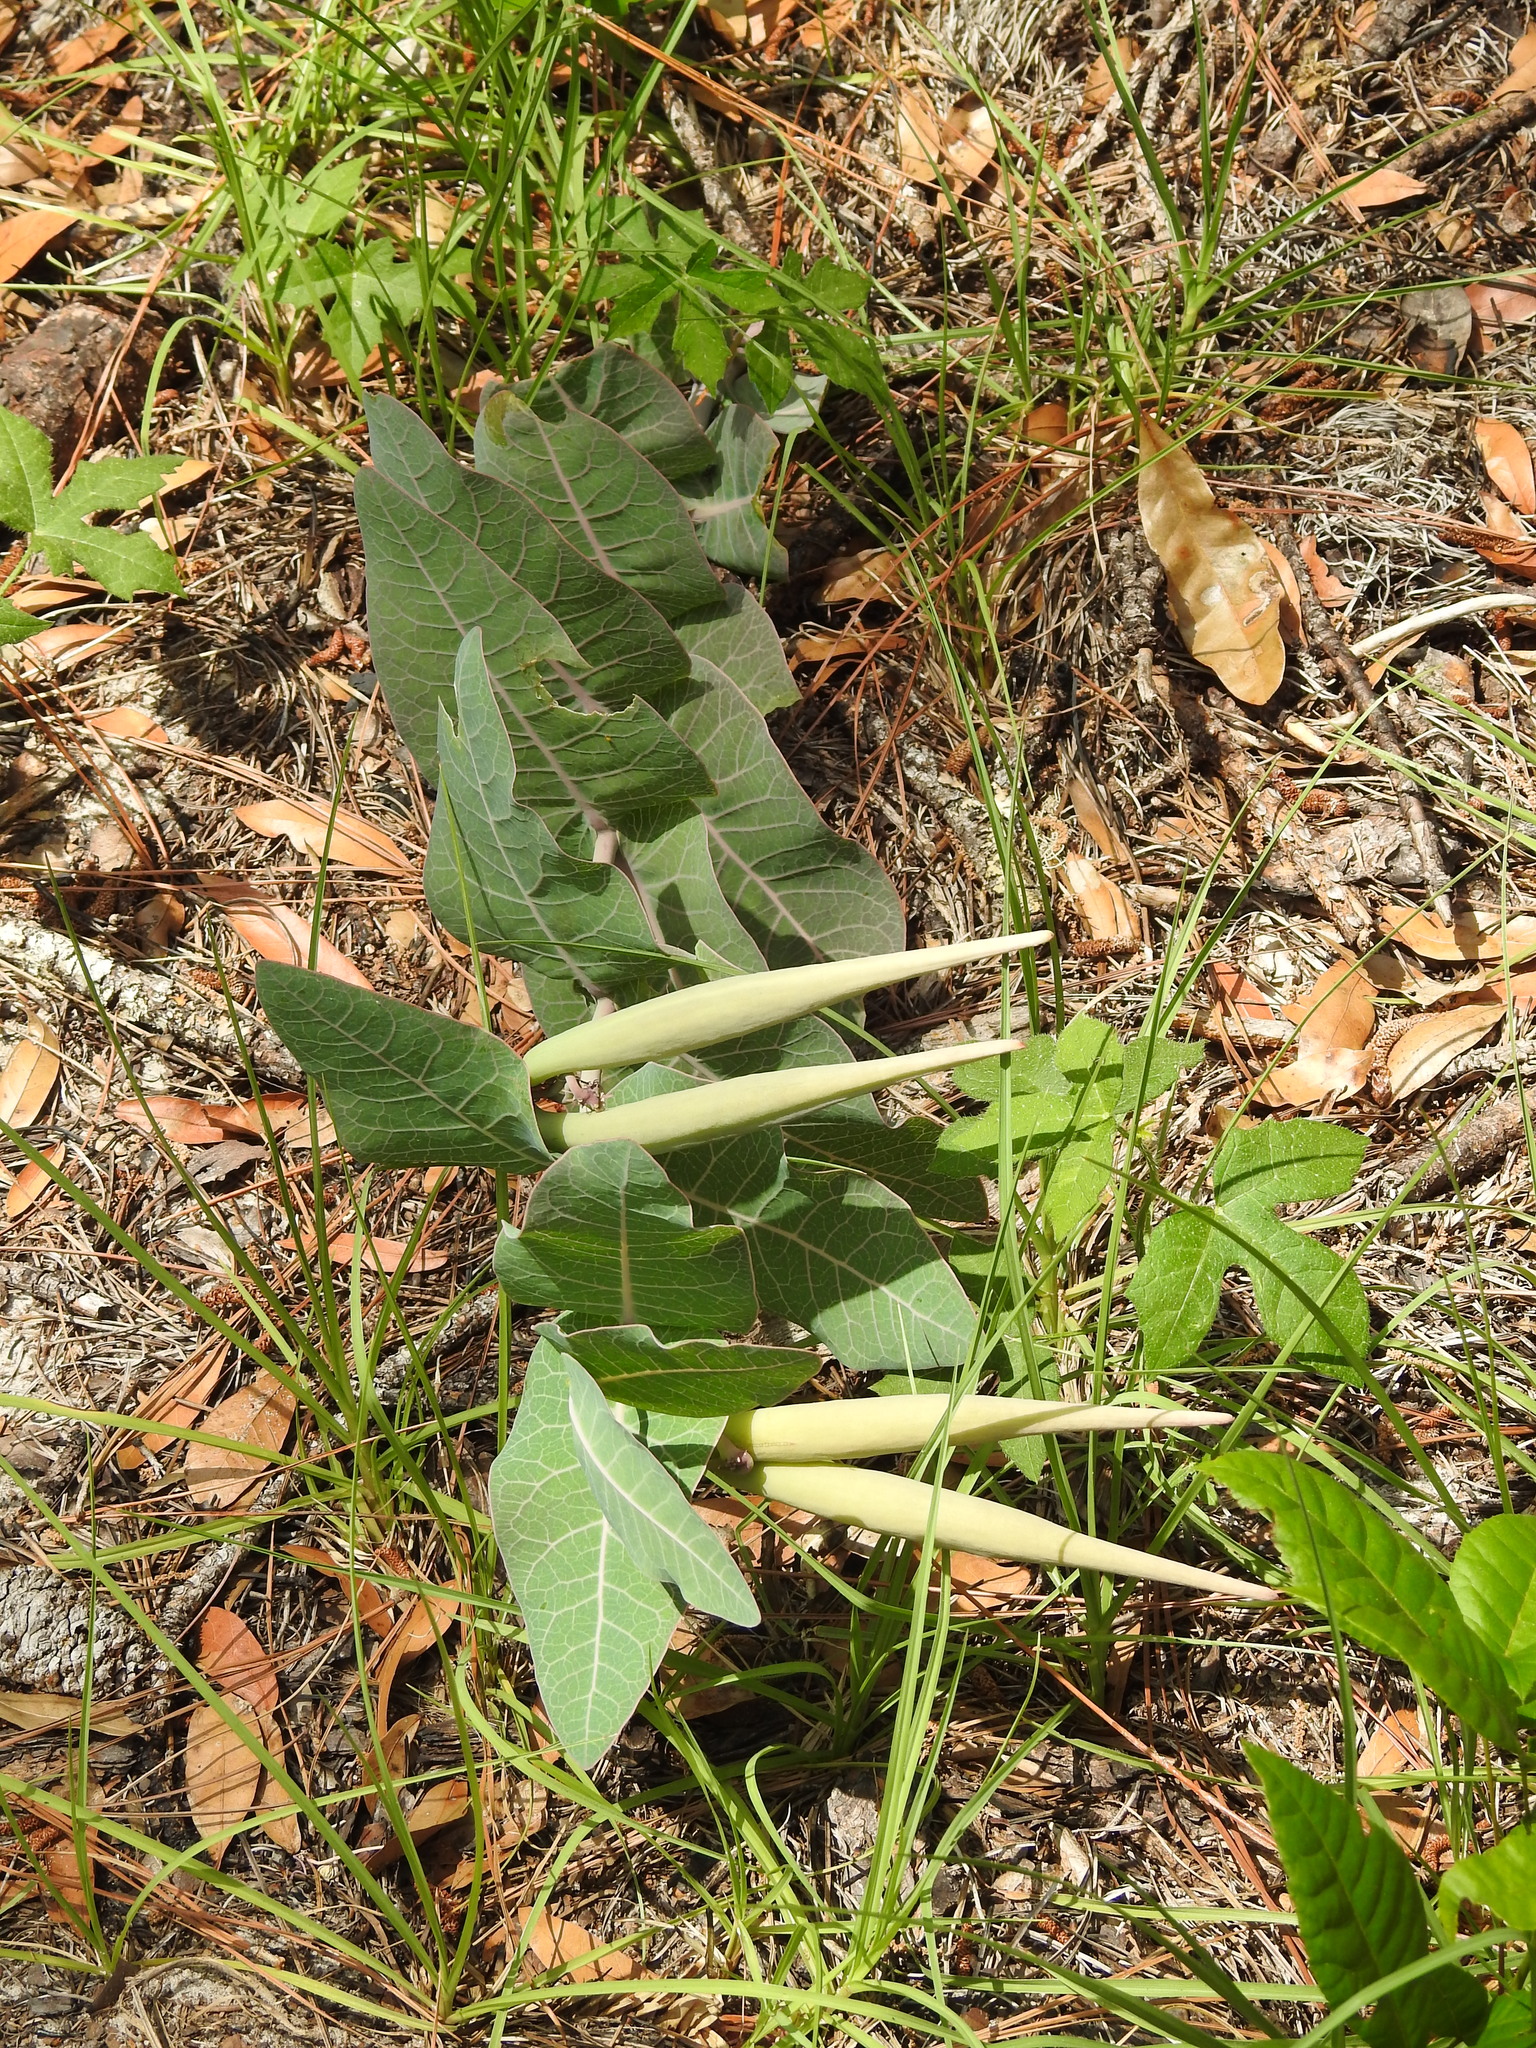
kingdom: Plantae
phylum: Tracheophyta
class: Magnoliopsida
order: Gentianales
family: Apocynaceae
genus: Asclepias
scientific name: Asclepias humistrata
